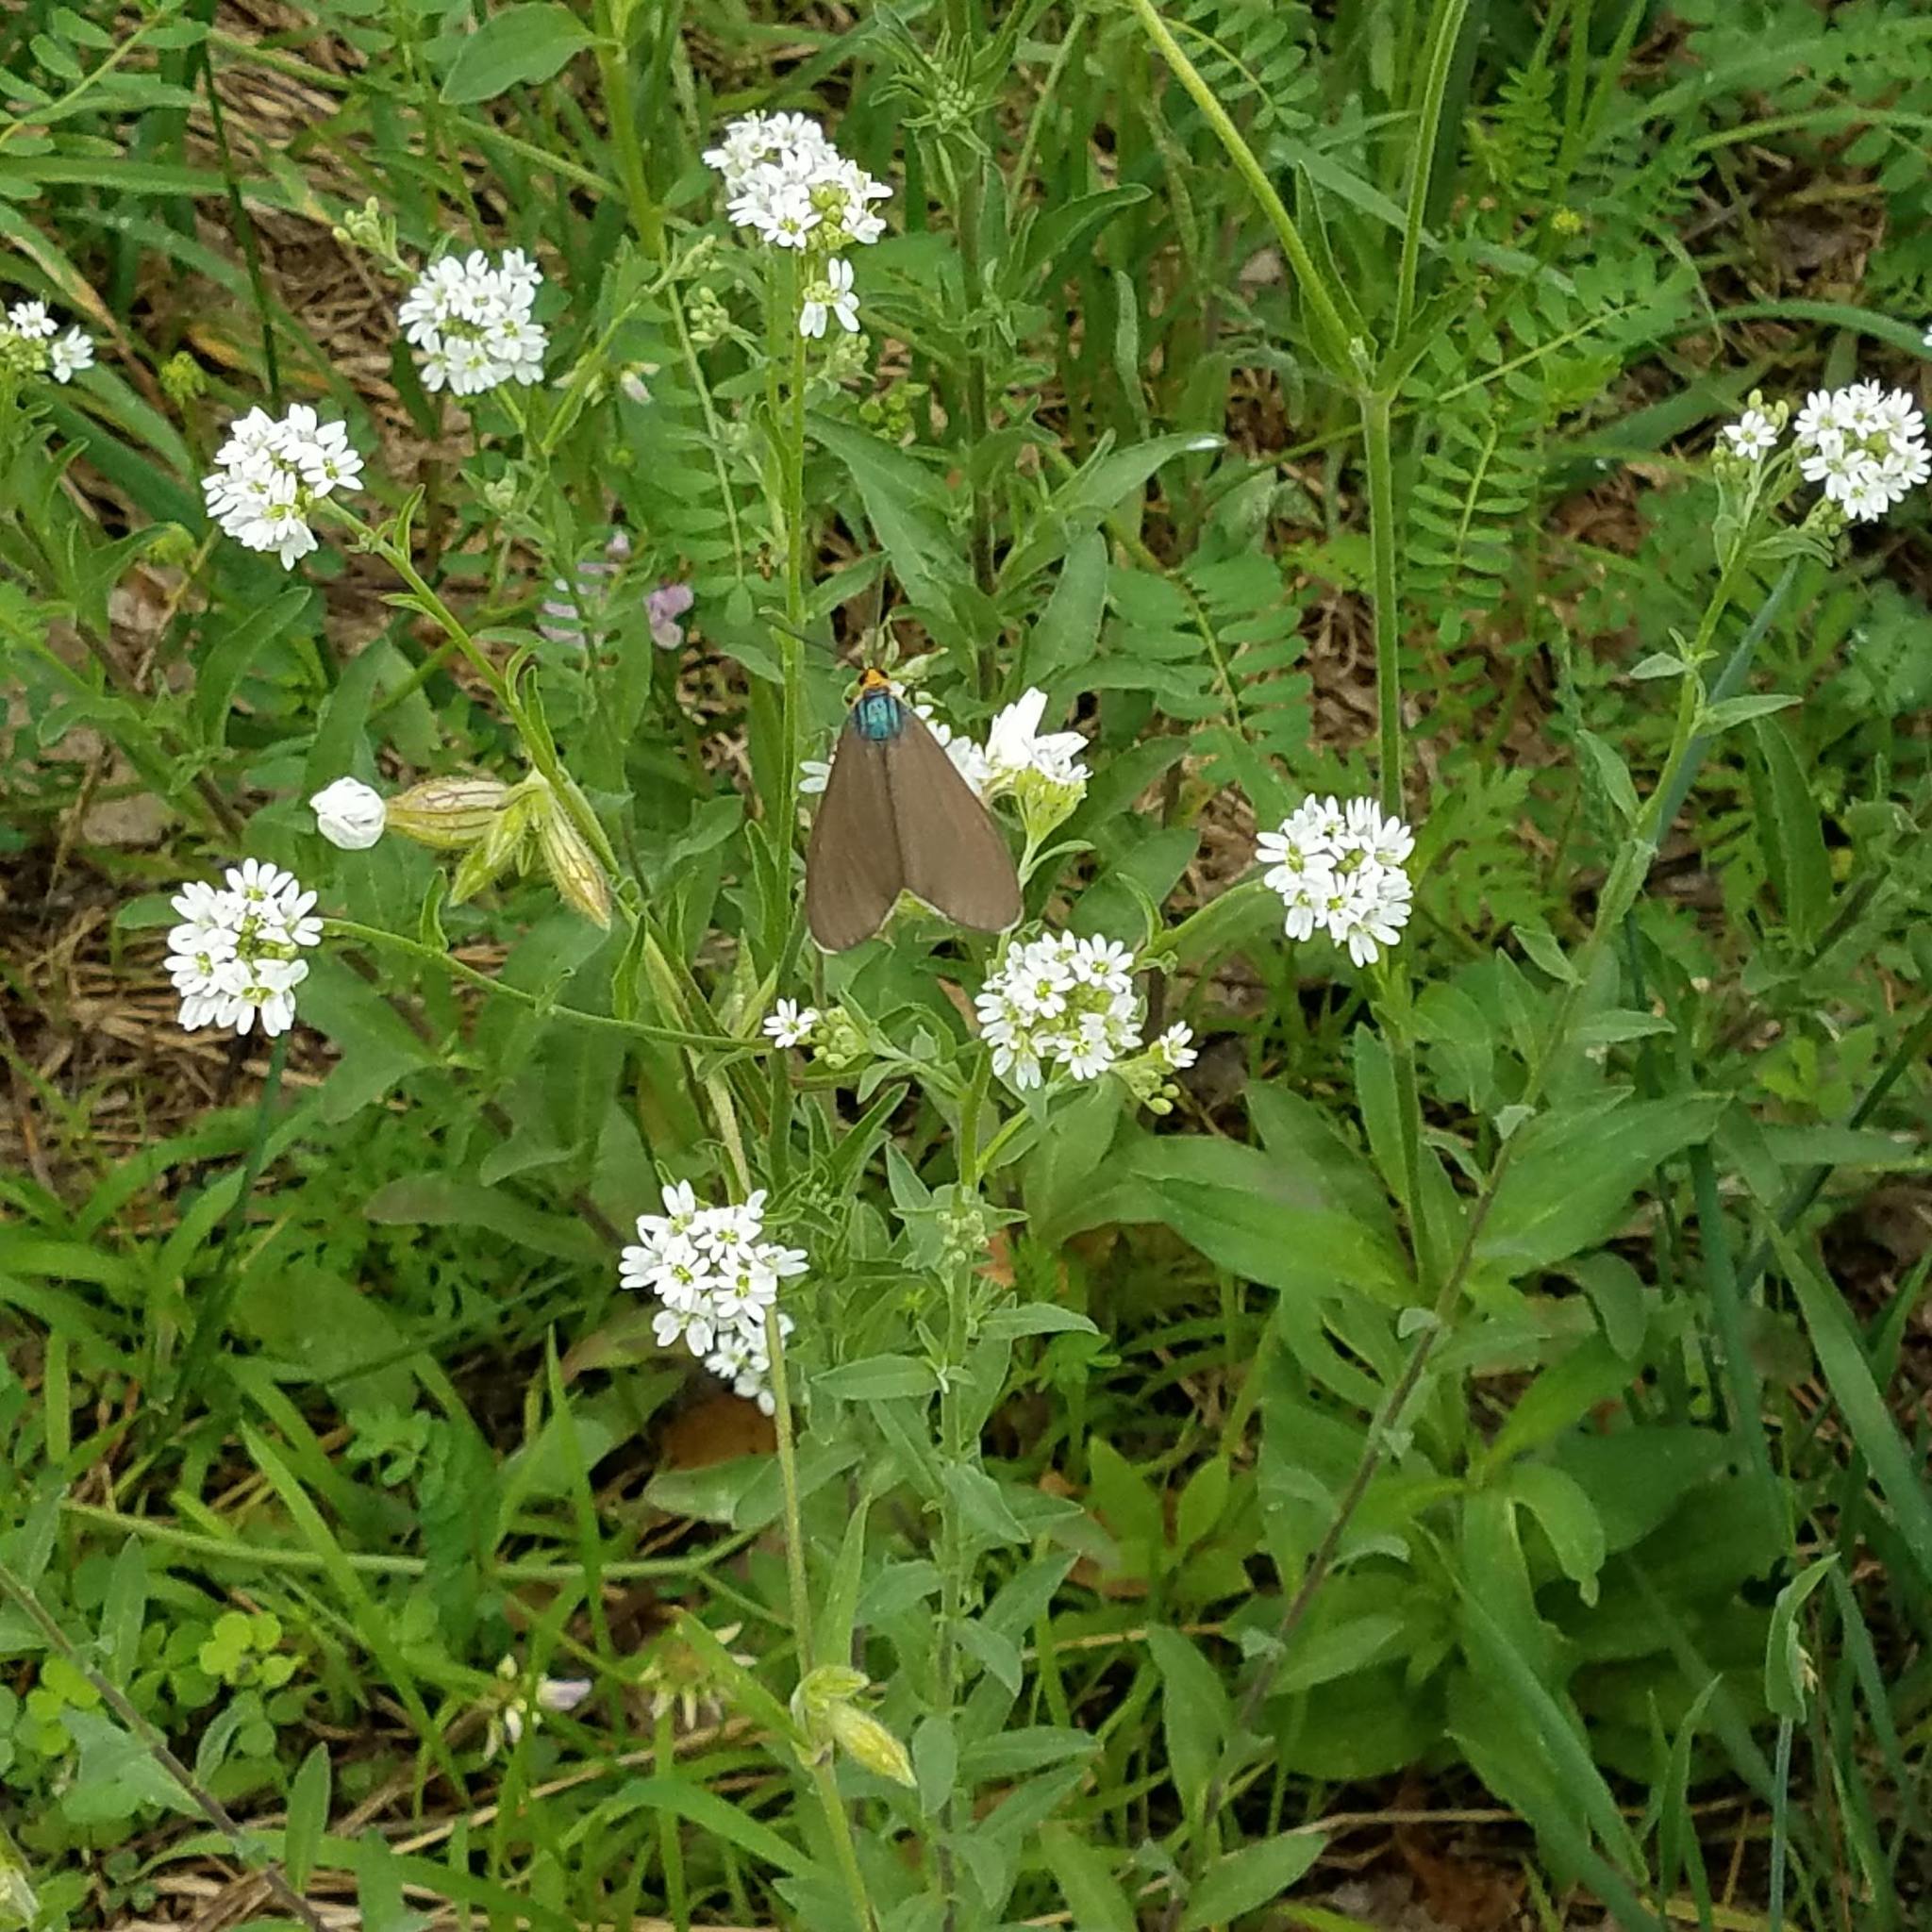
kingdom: Plantae
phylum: Tracheophyta
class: Magnoliopsida
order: Brassicales
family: Brassicaceae
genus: Berteroa
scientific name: Berteroa incana
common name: Hoary alison
